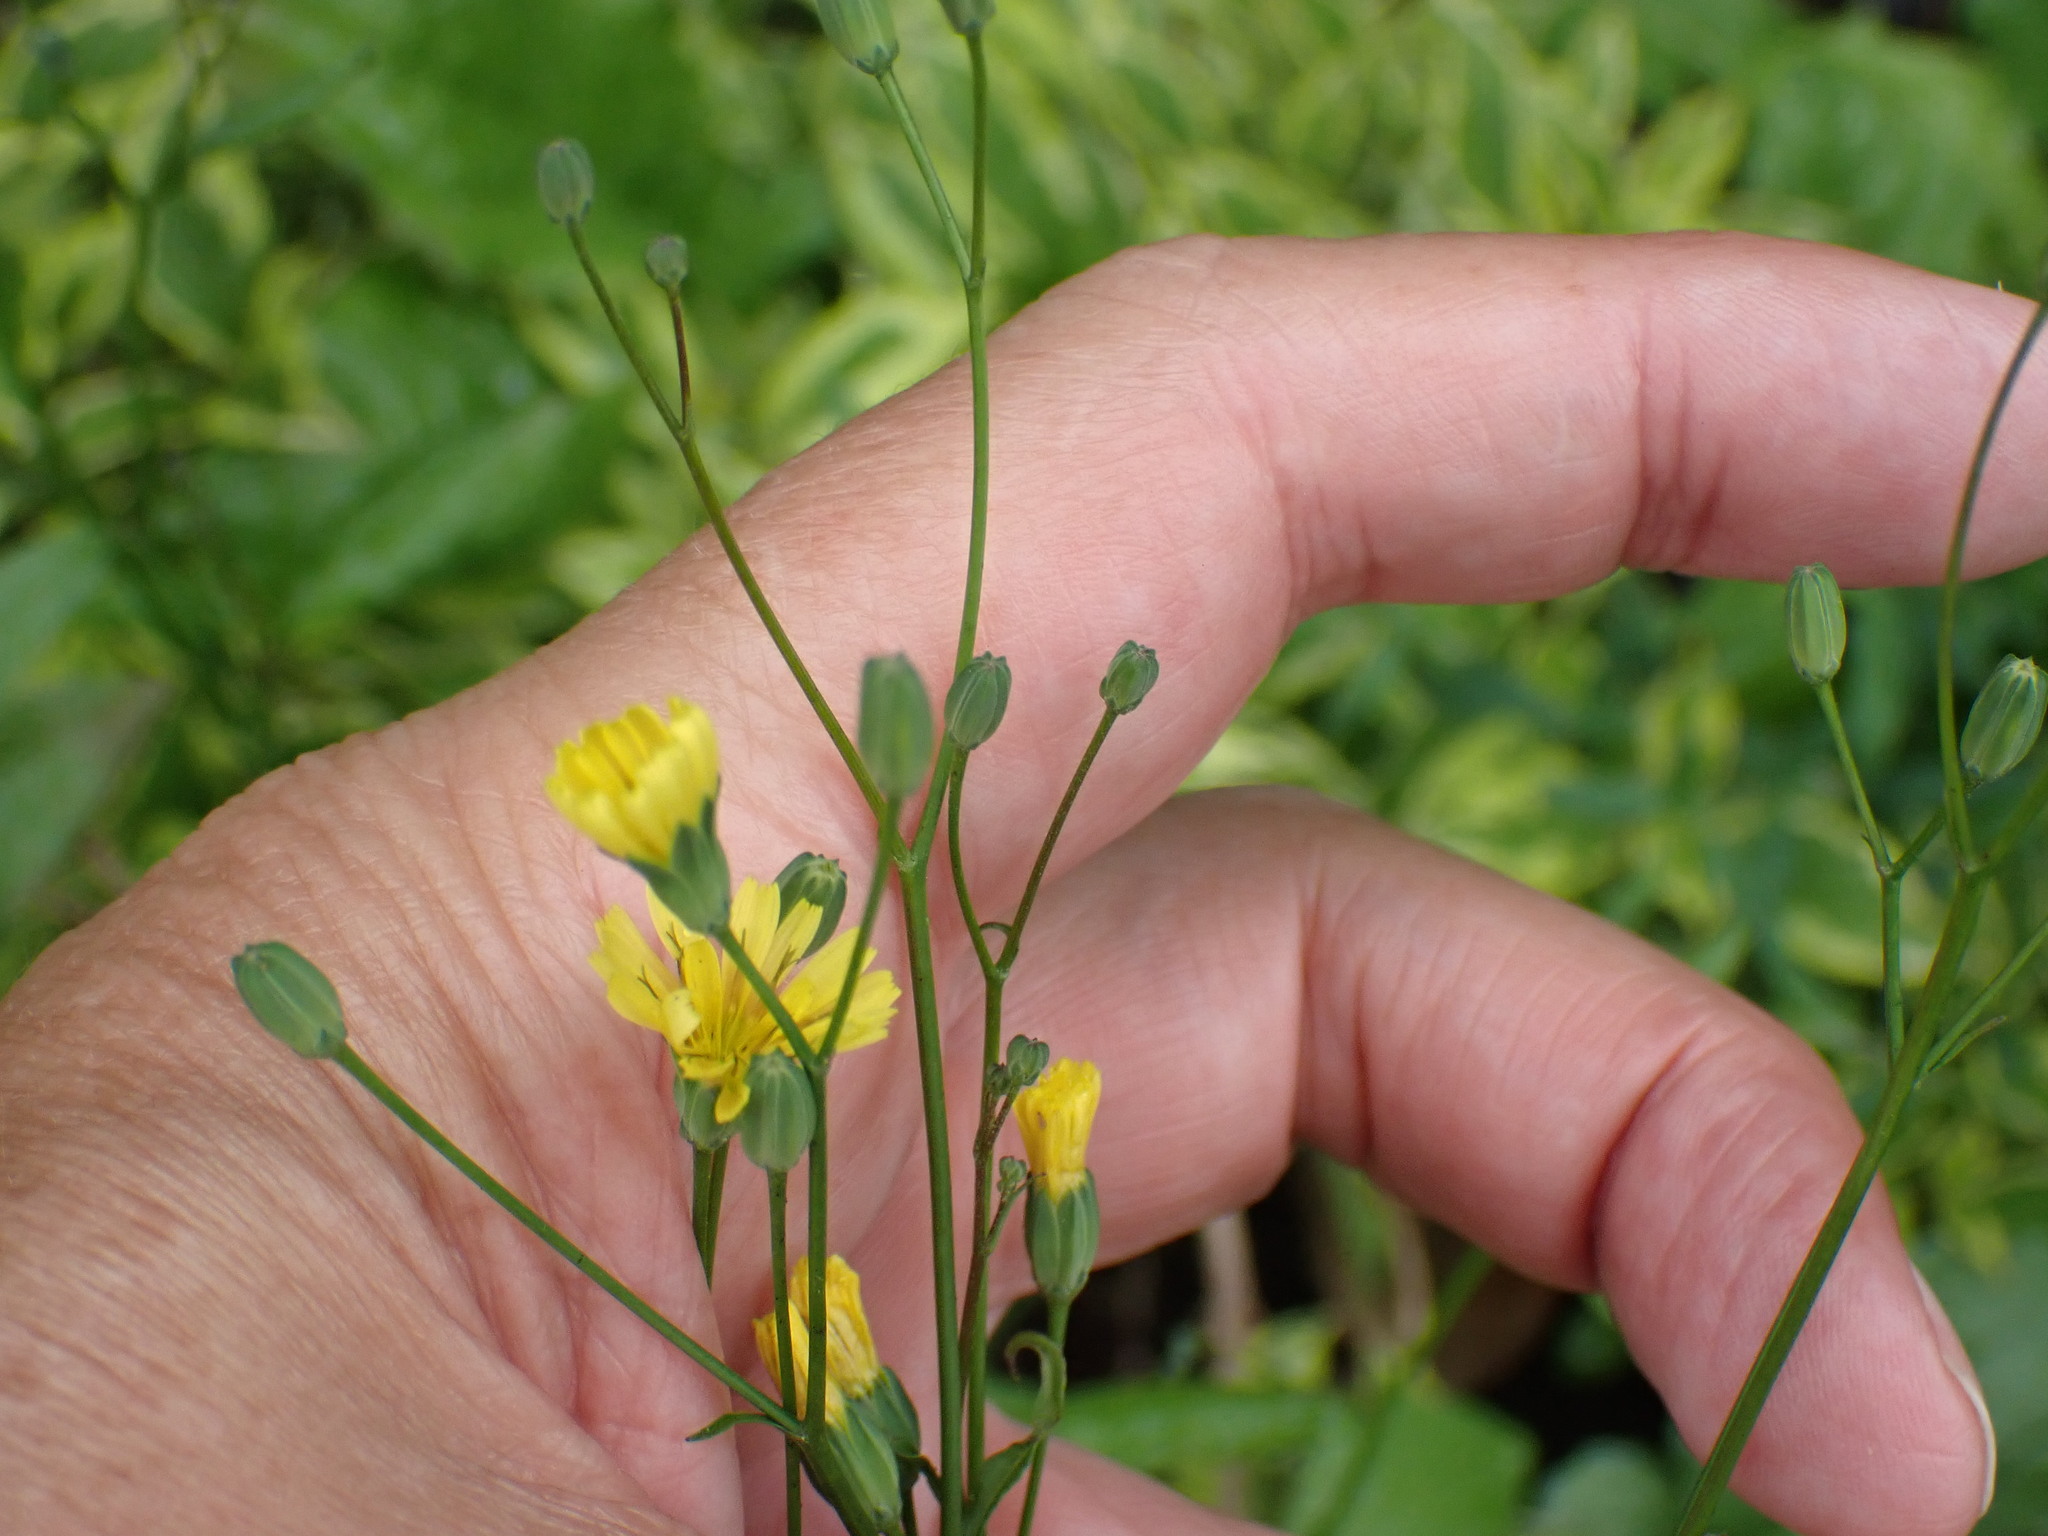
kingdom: Plantae
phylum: Tracheophyta
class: Magnoliopsida
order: Asterales
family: Asteraceae
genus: Lapsana
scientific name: Lapsana communis
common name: Nipplewort
